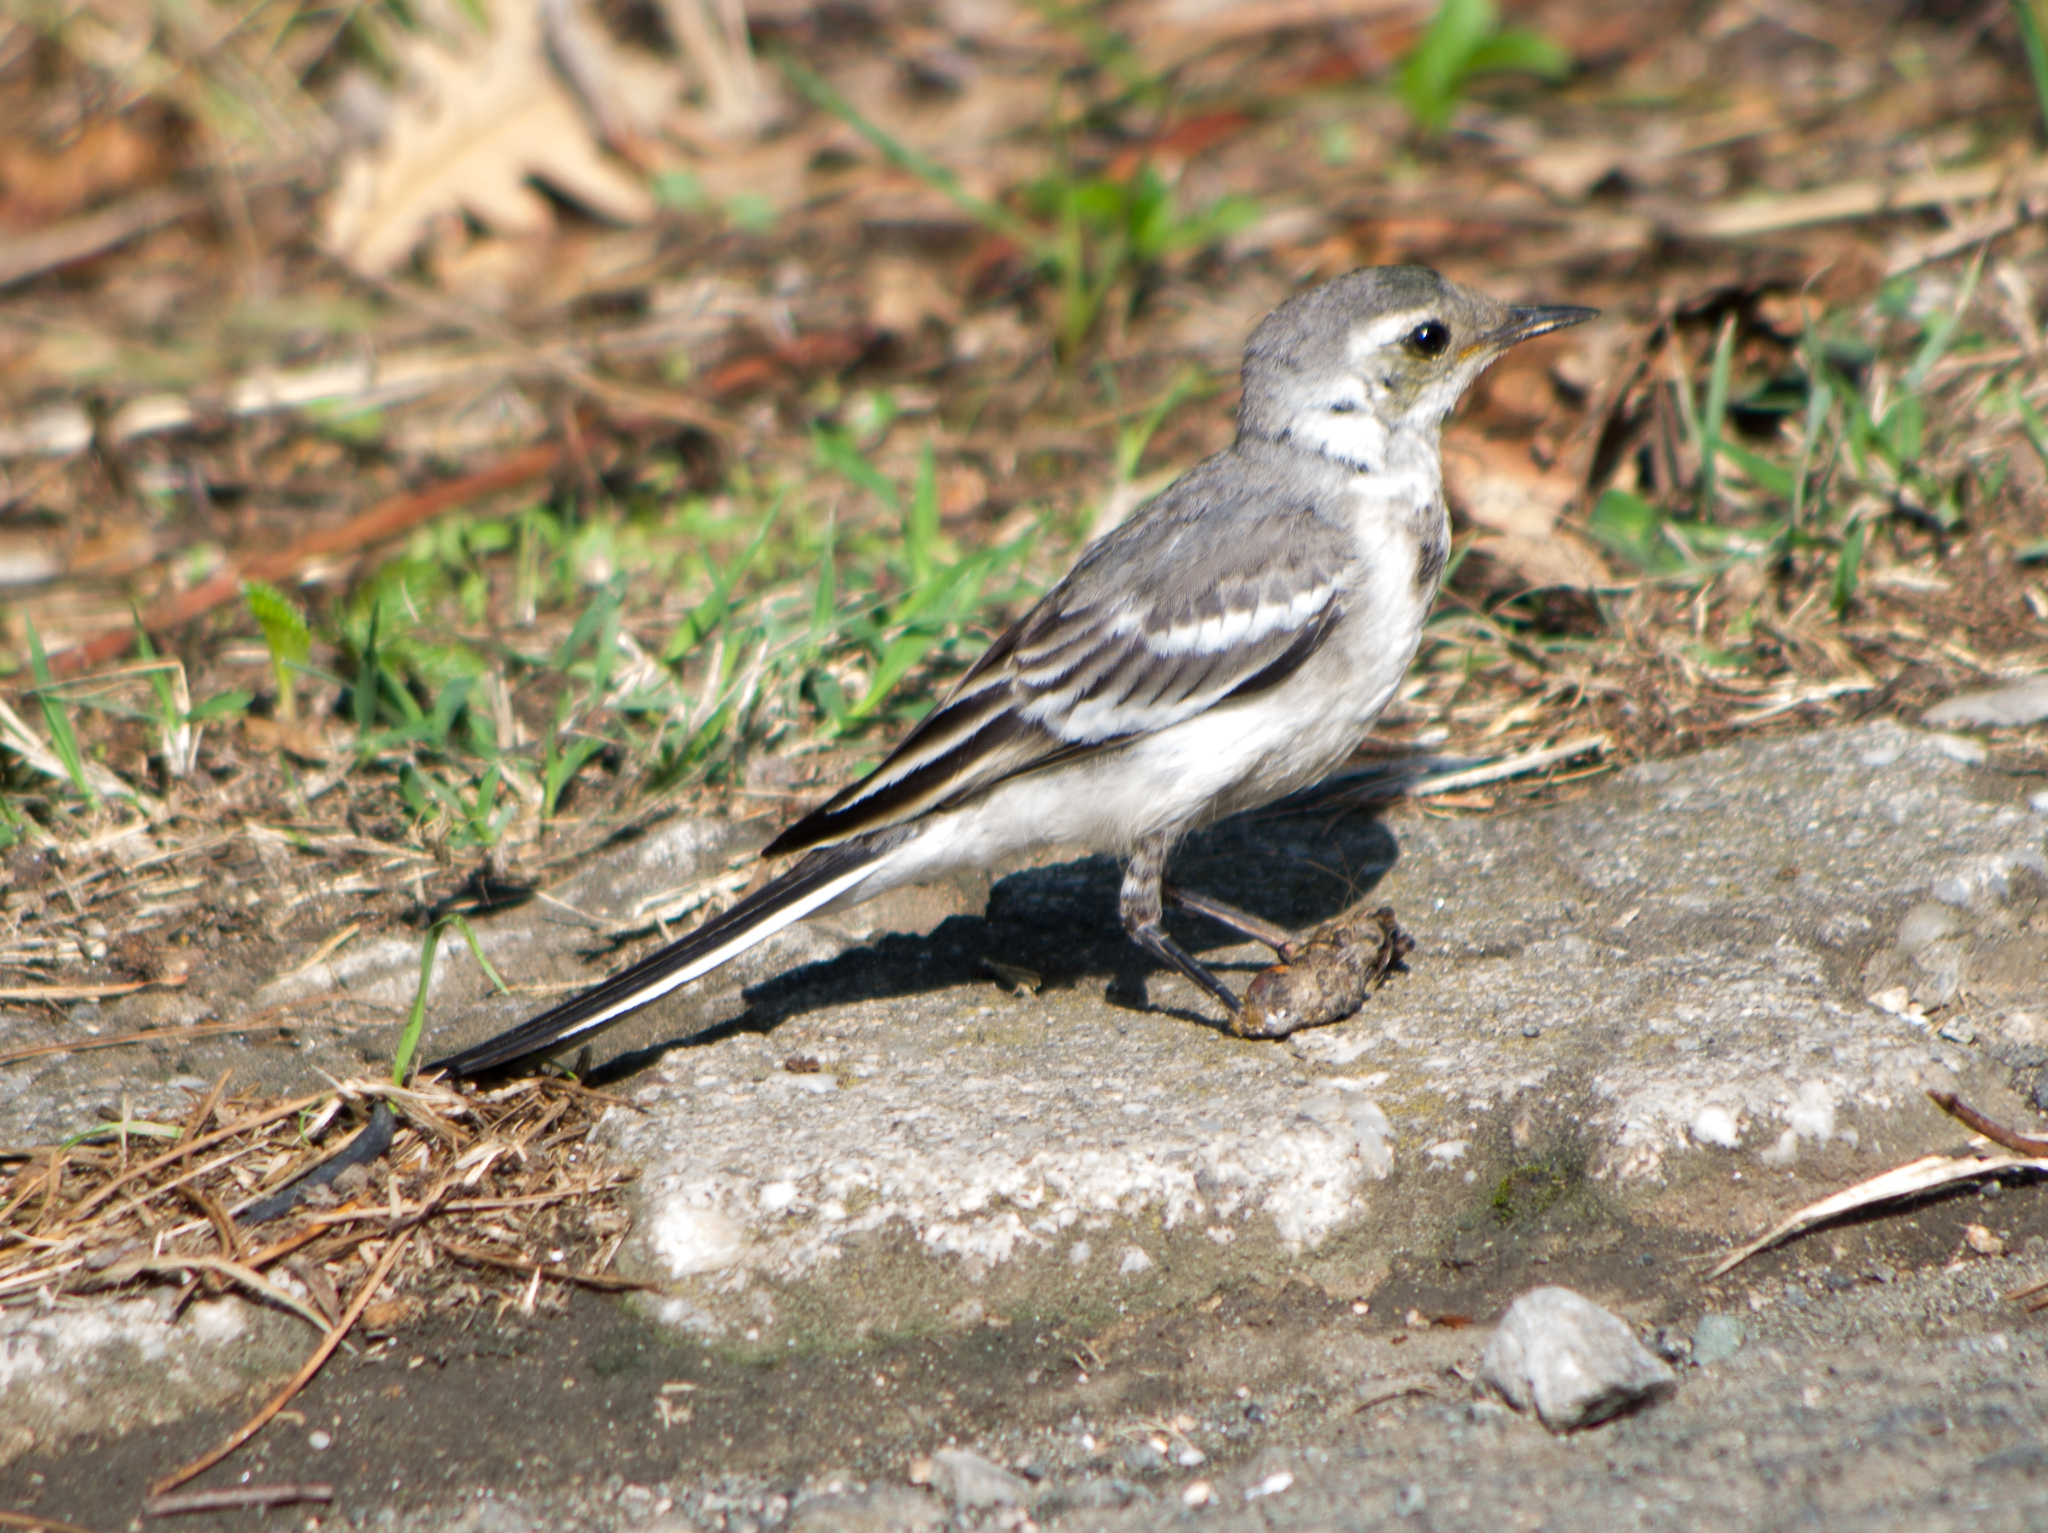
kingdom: Animalia
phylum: Chordata
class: Aves
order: Passeriformes
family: Motacillidae
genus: Motacilla
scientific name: Motacilla alba
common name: White wagtail
